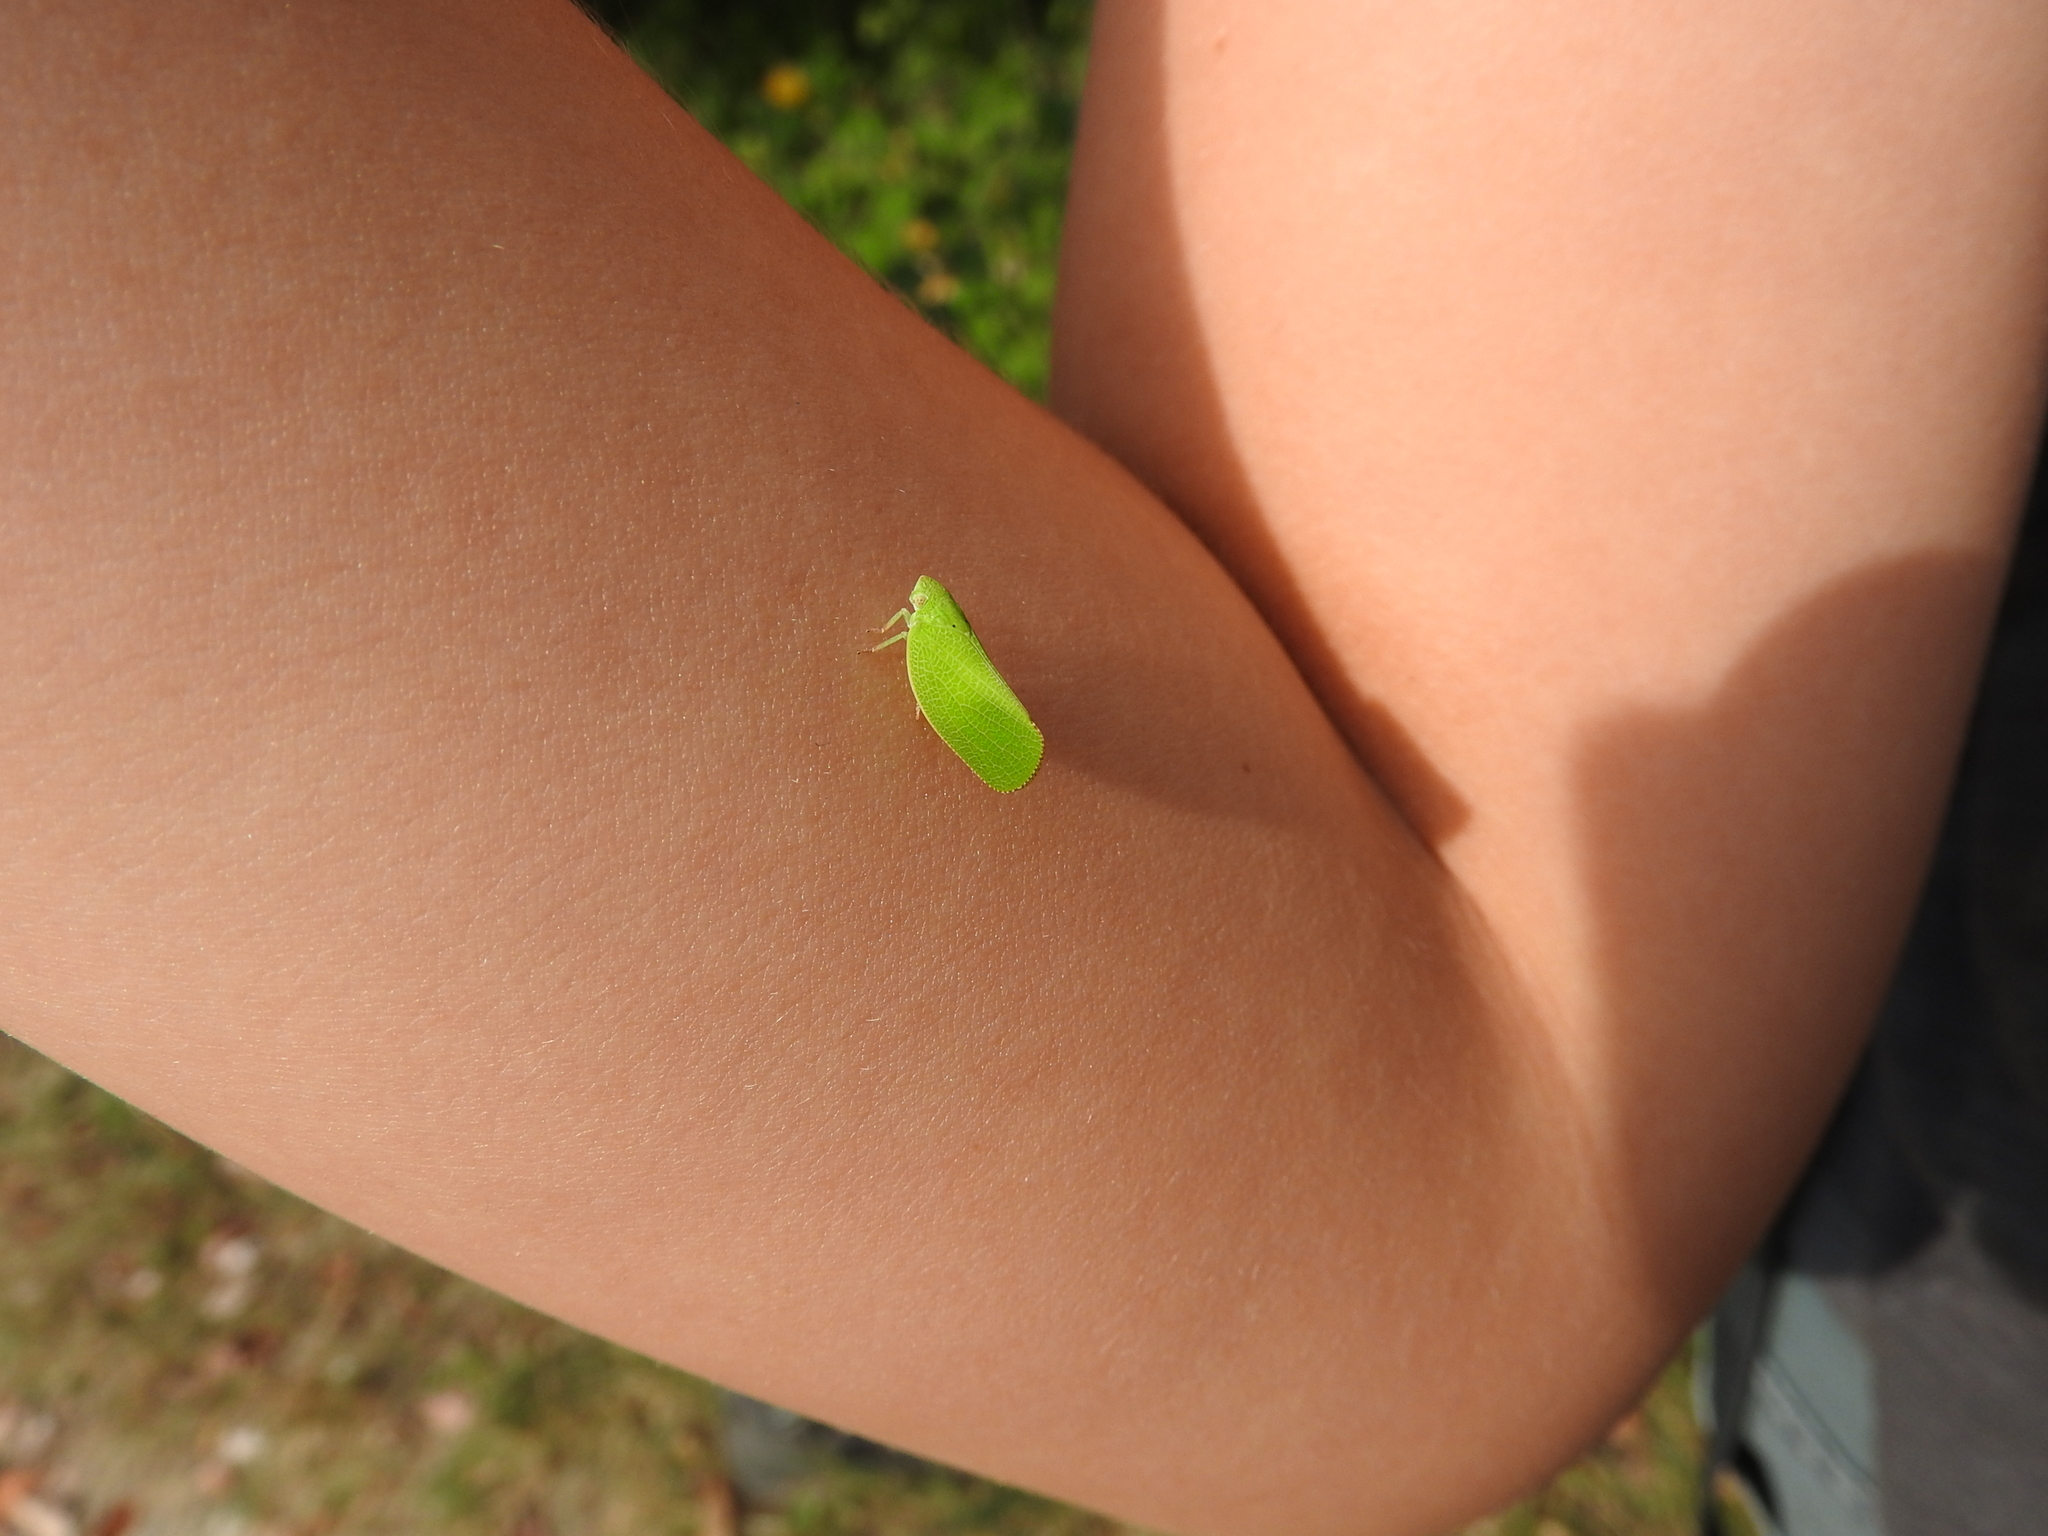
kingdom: Animalia
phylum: Arthropoda
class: Insecta
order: Hemiptera
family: Acanaloniidae
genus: Acanalonia
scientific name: Acanalonia conica
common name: Green cone-headed planthopper
